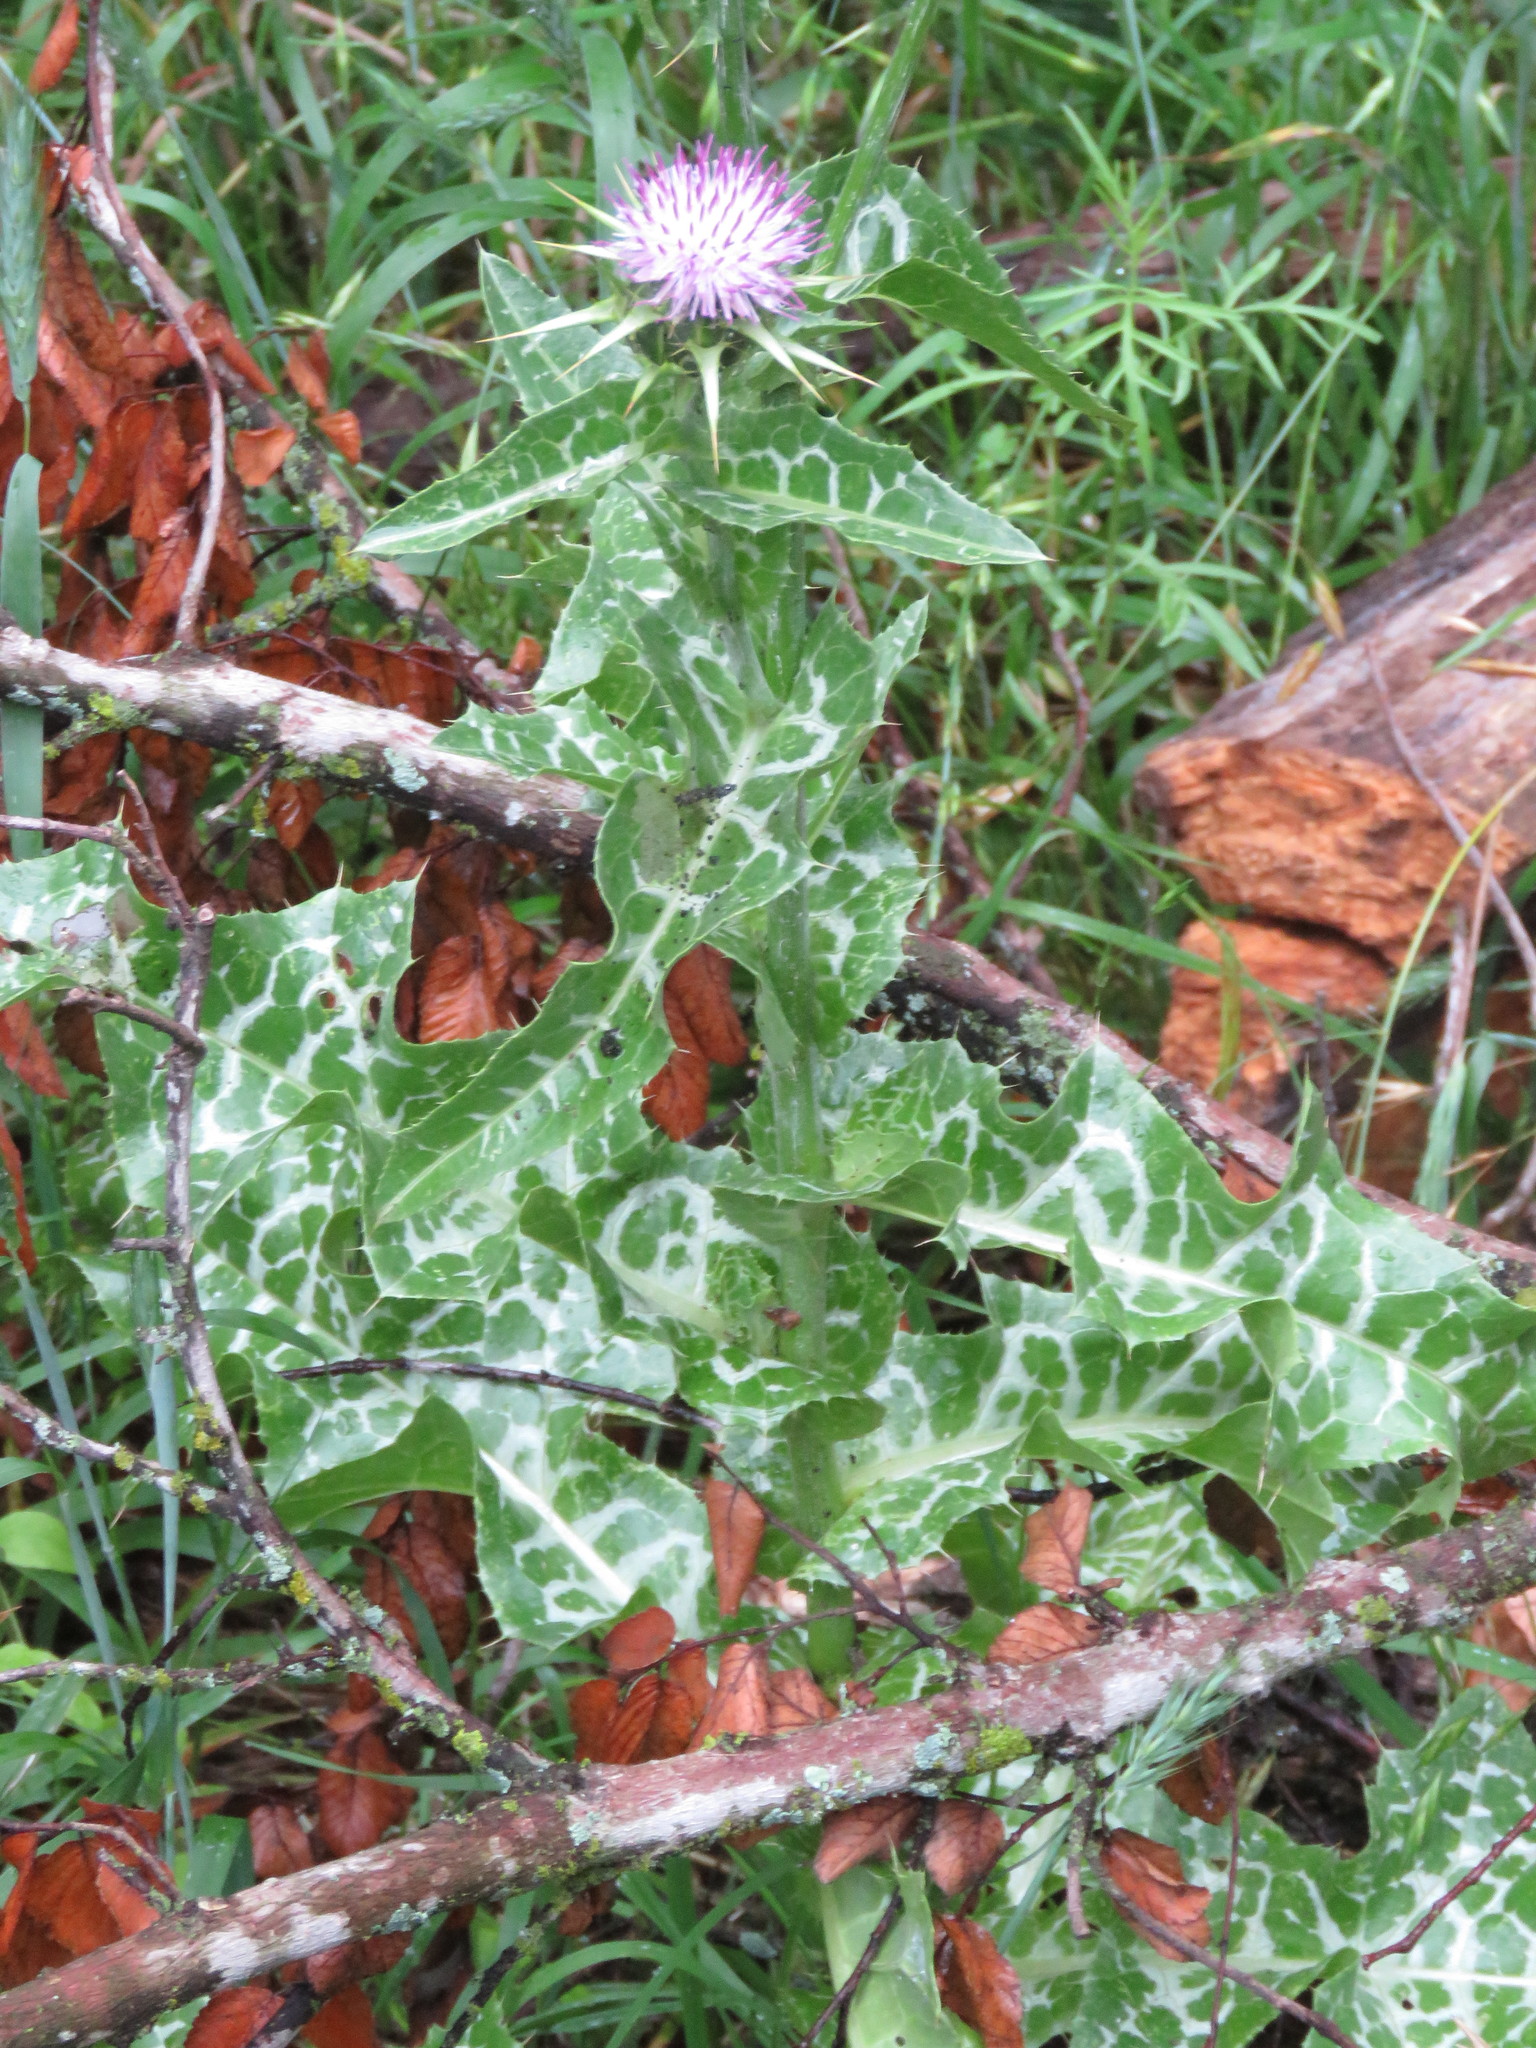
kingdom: Plantae
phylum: Tracheophyta
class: Magnoliopsida
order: Asterales
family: Asteraceae
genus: Silybum
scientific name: Silybum marianum
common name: Milk thistle
